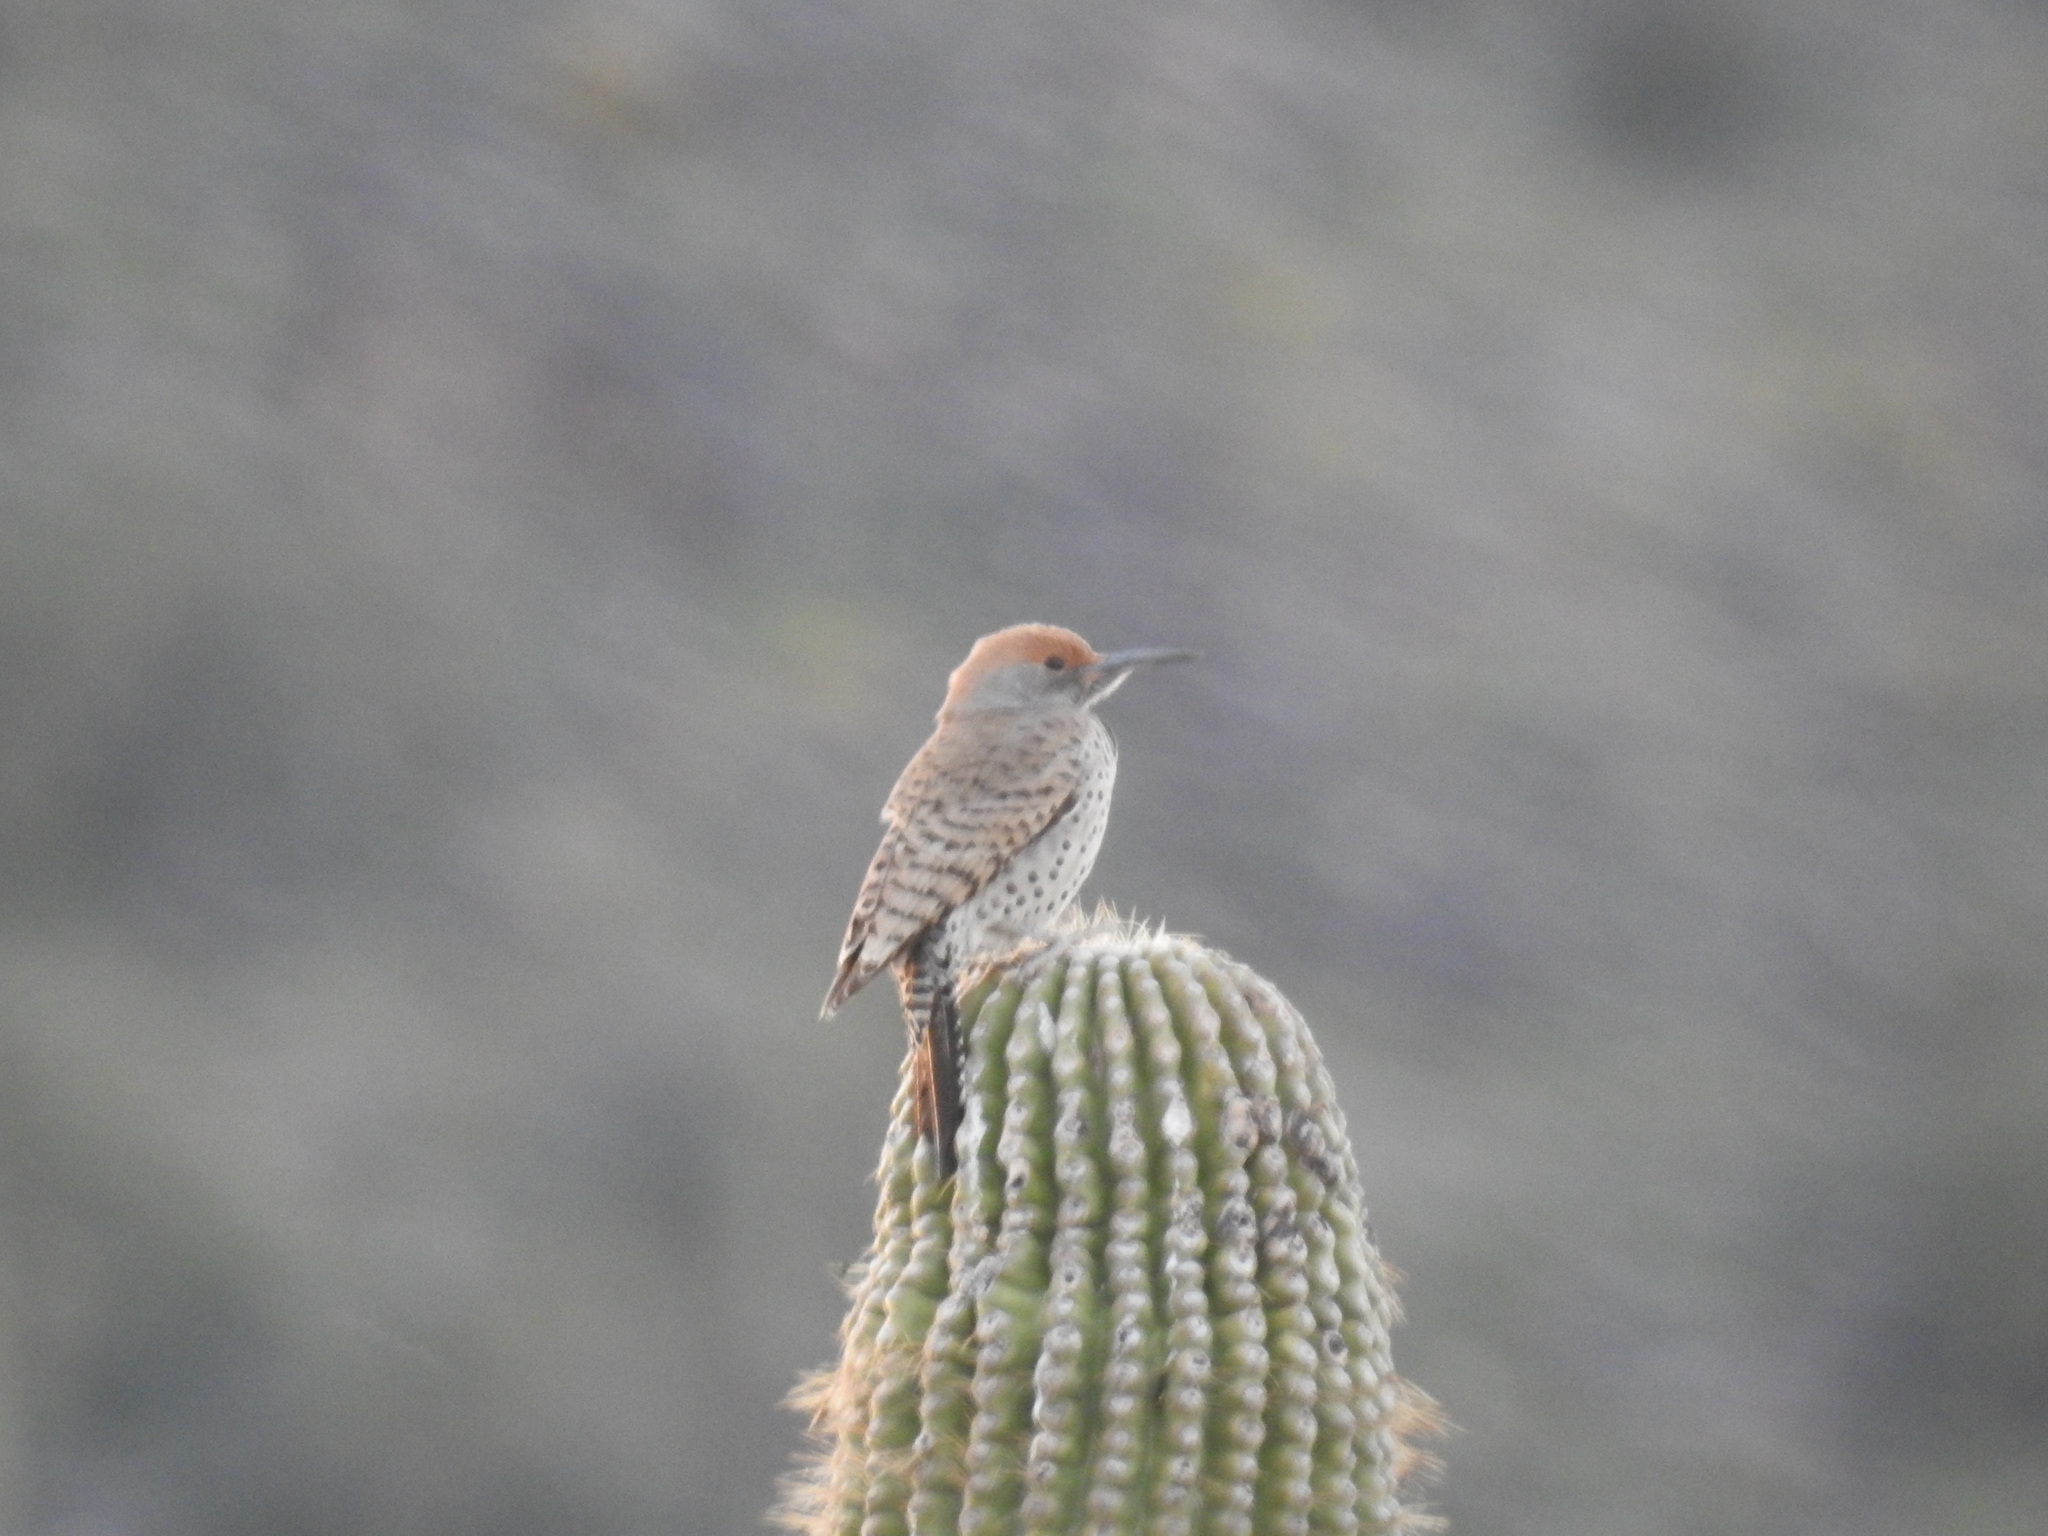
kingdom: Animalia
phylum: Chordata
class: Aves
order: Piciformes
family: Picidae
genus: Colaptes
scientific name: Colaptes chrysoides
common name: Gilded flicker
